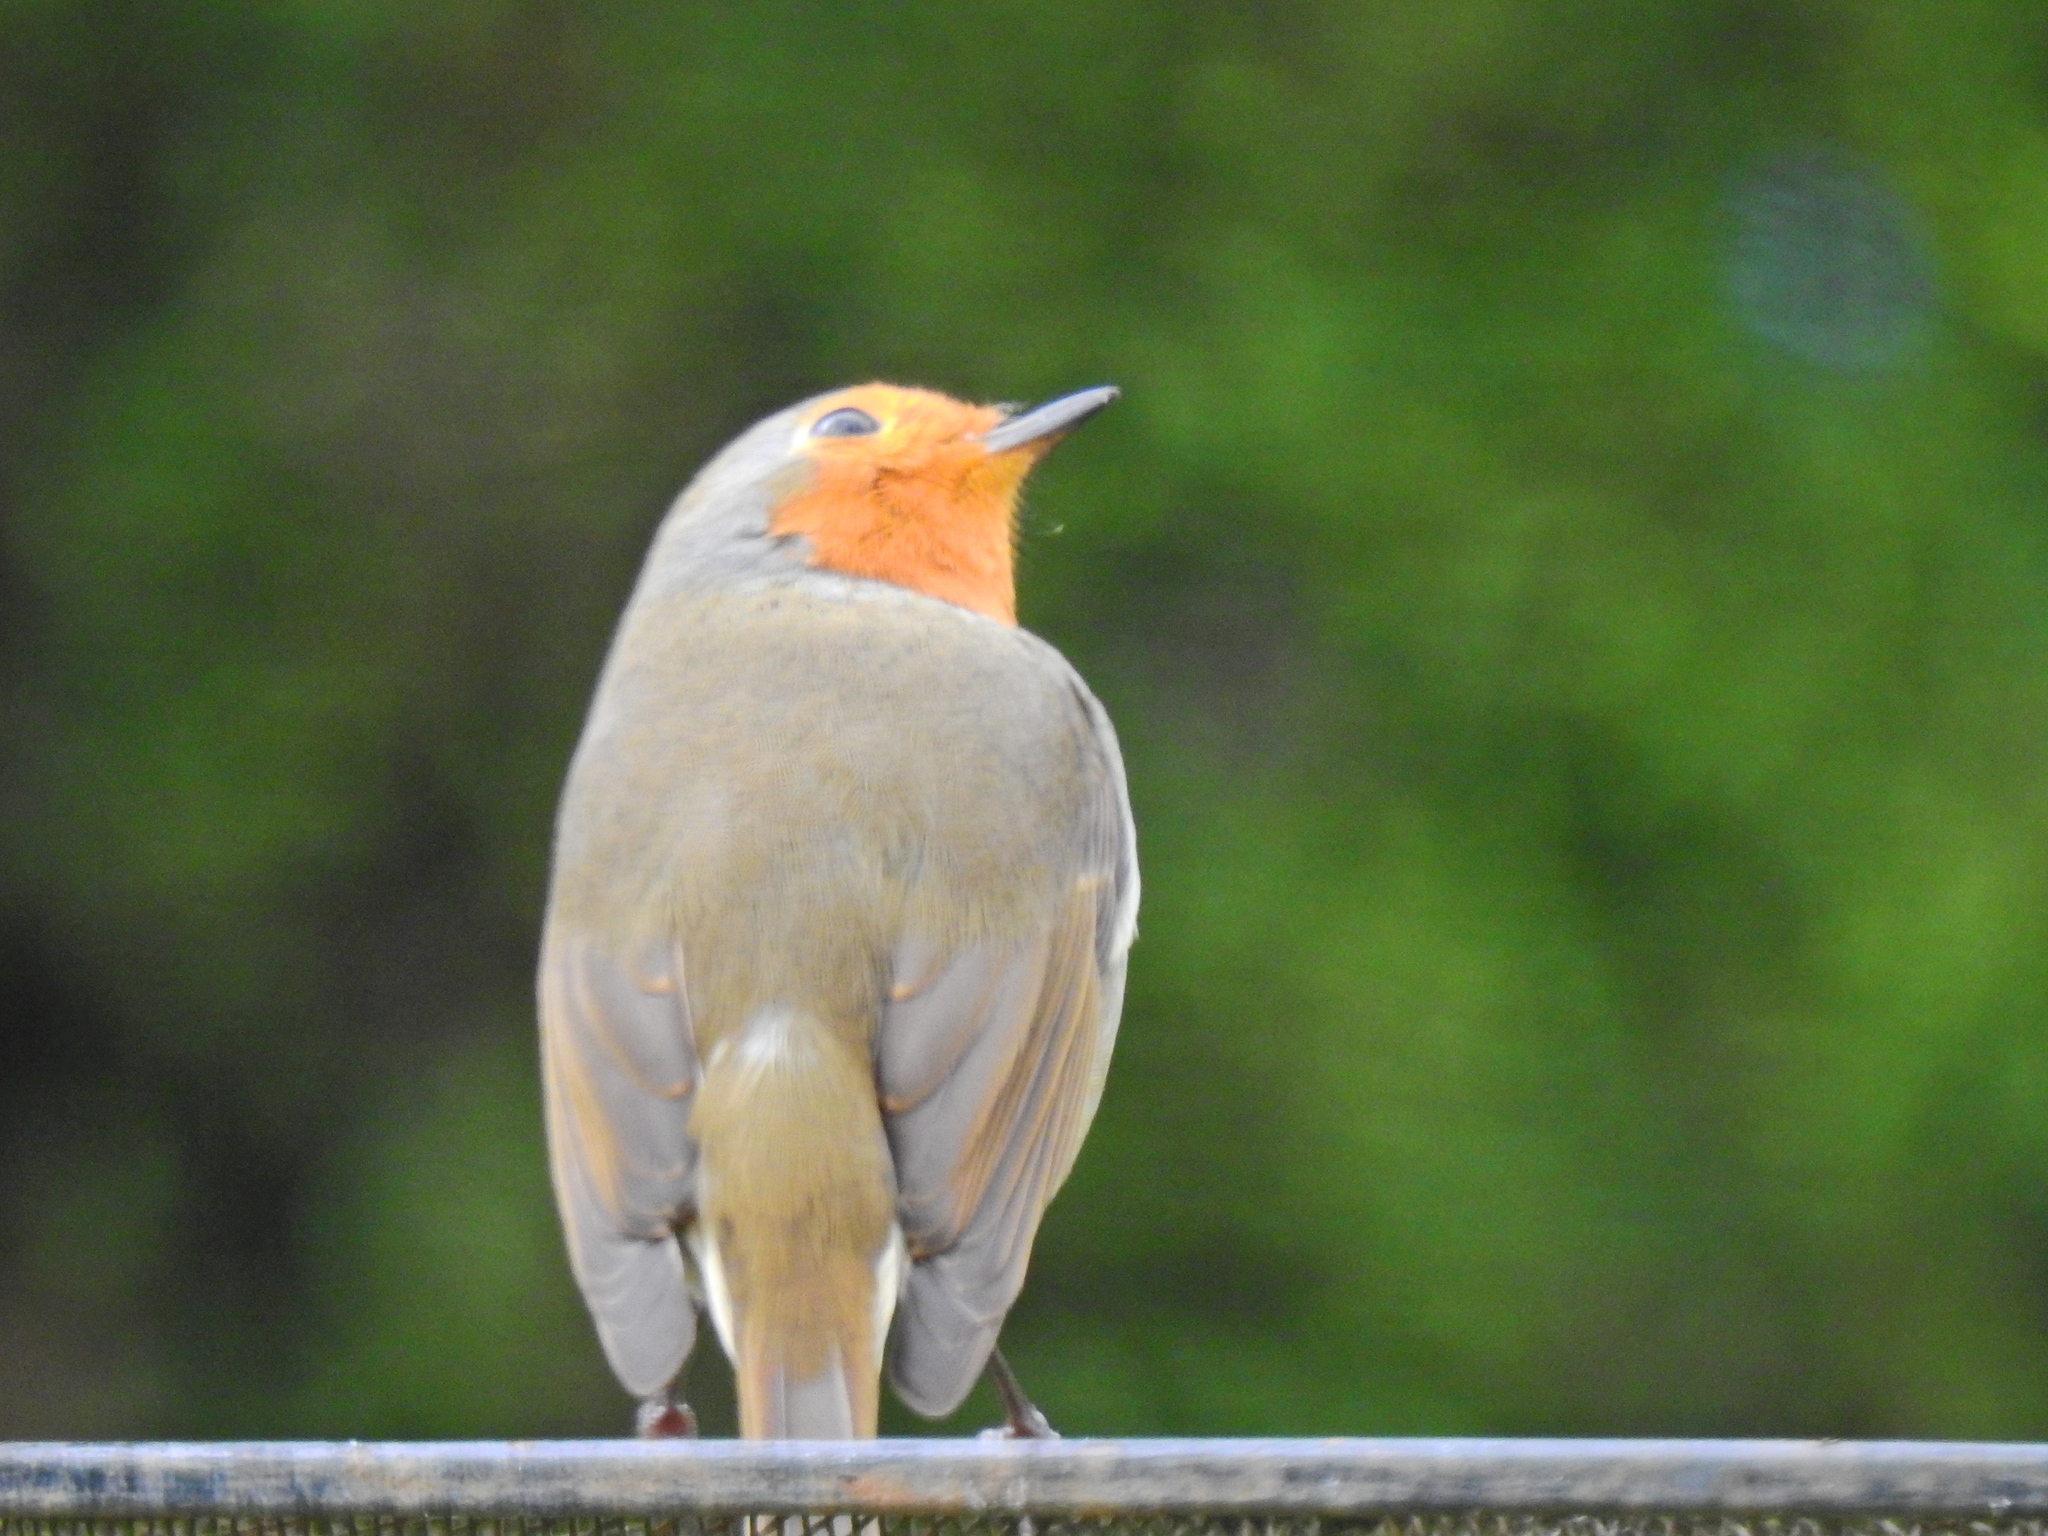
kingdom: Animalia
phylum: Chordata
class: Aves
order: Passeriformes
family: Muscicapidae
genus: Erithacus
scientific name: Erithacus rubecula
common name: European robin
